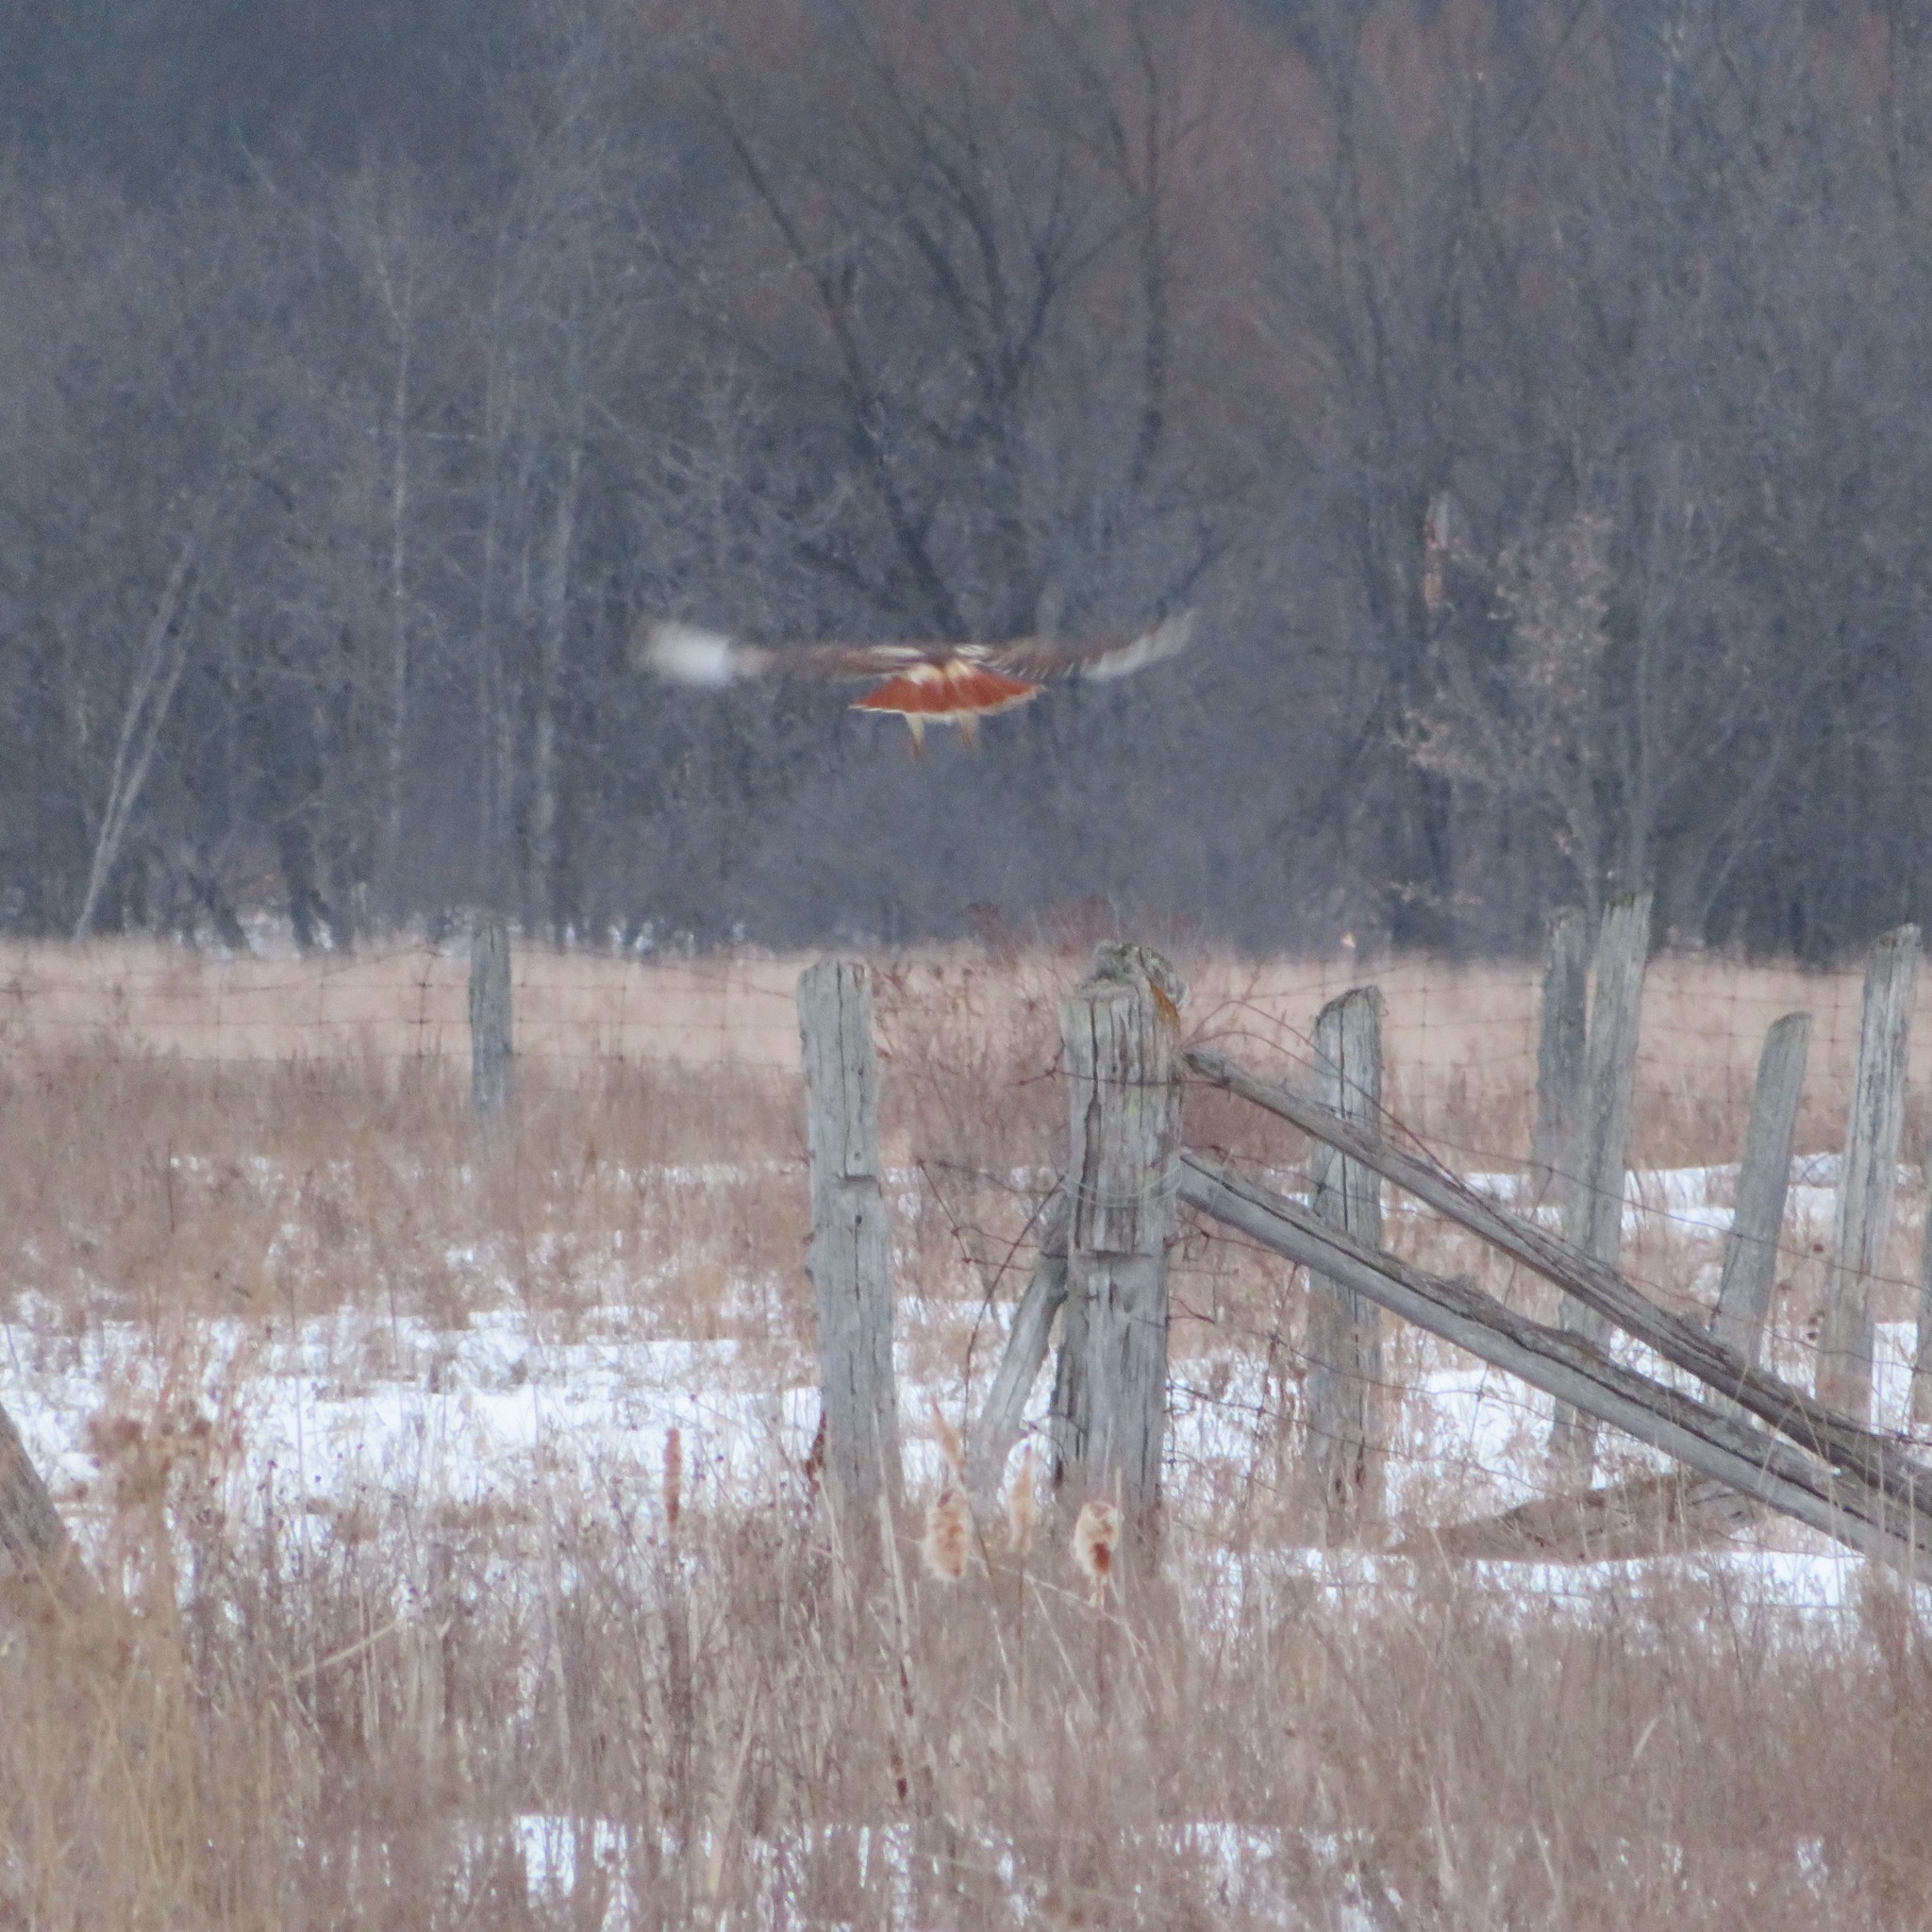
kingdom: Animalia
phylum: Chordata
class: Aves
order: Accipitriformes
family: Accipitridae
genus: Buteo
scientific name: Buteo jamaicensis
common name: Red-tailed hawk
